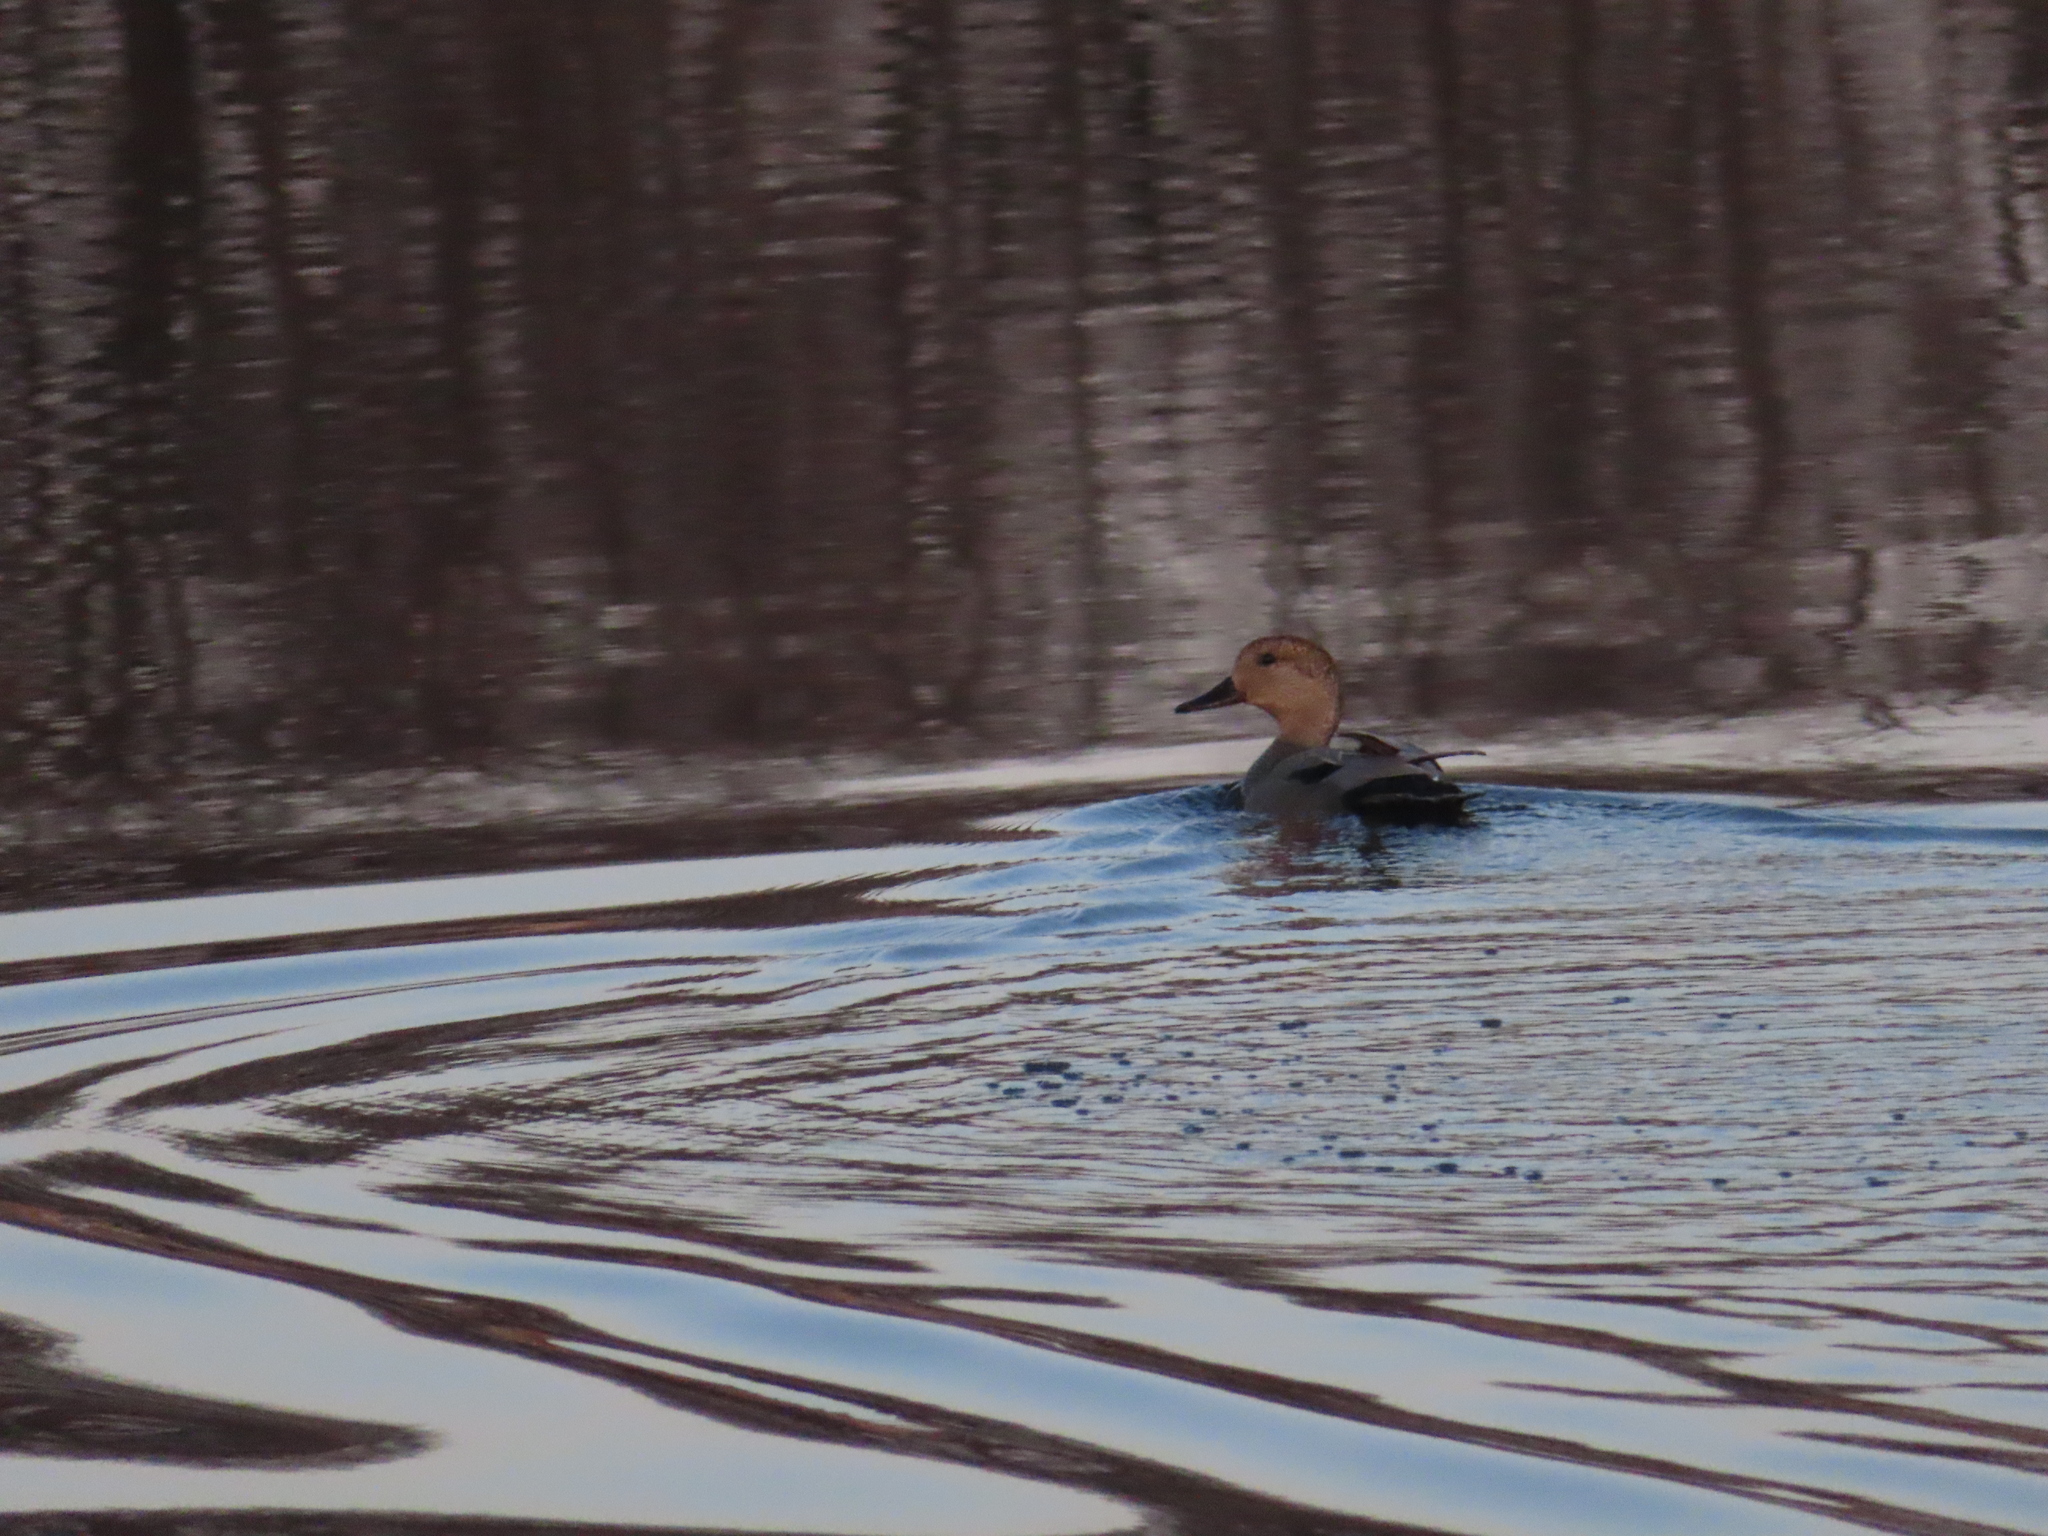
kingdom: Animalia
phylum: Chordata
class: Aves
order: Anseriformes
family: Anatidae
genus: Mareca
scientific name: Mareca strepera
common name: Gadwall
